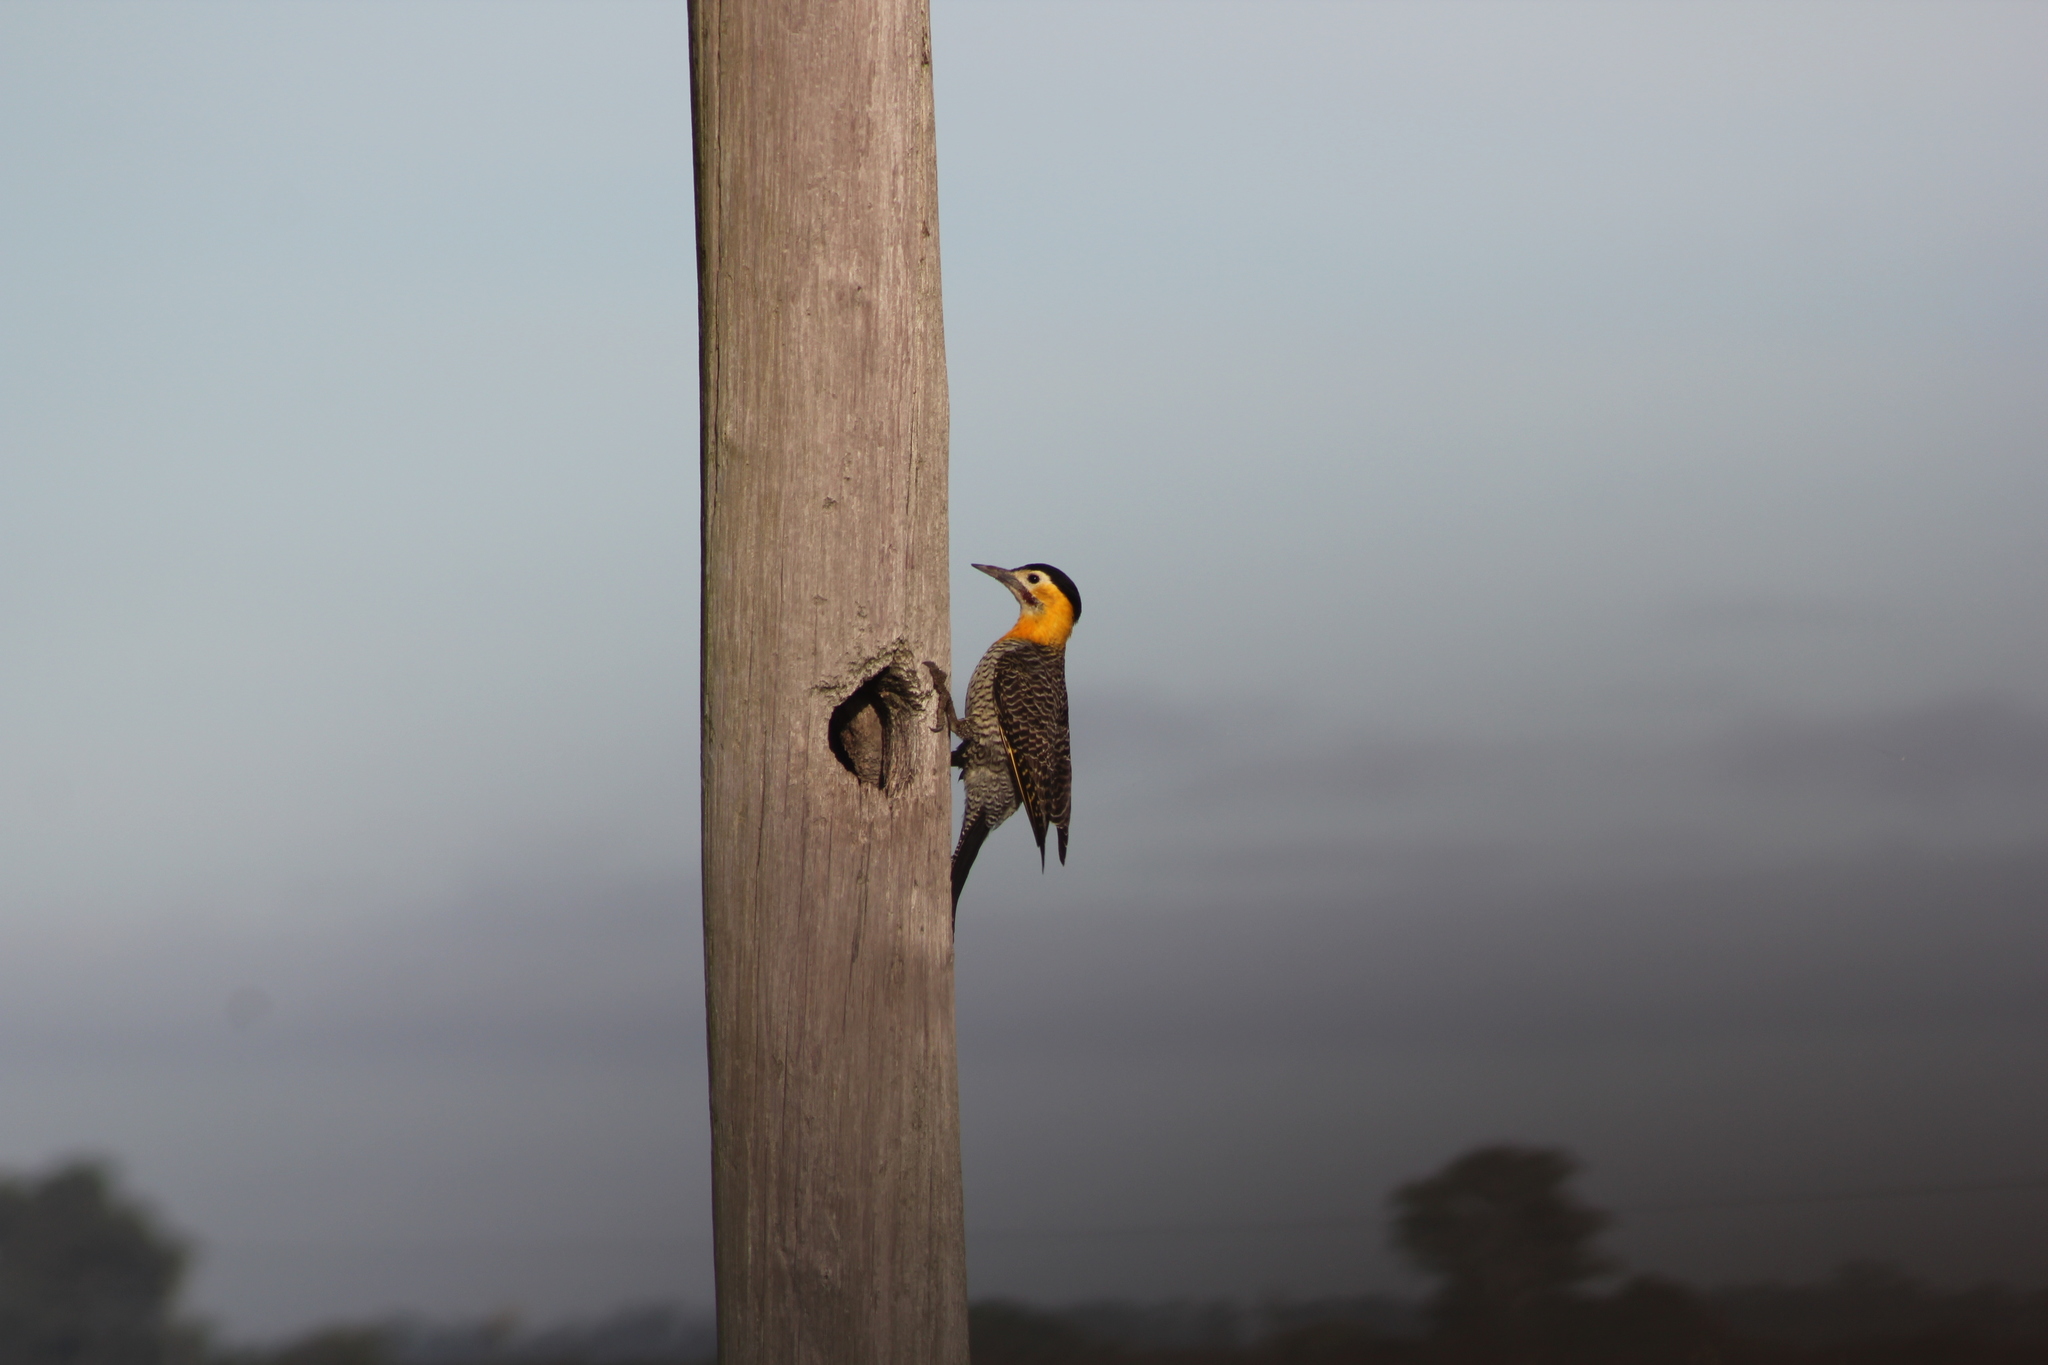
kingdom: Animalia
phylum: Chordata
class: Aves
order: Piciformes
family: Picidae
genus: Colaptes
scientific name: Colaptes campestris
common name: Campo flicker
